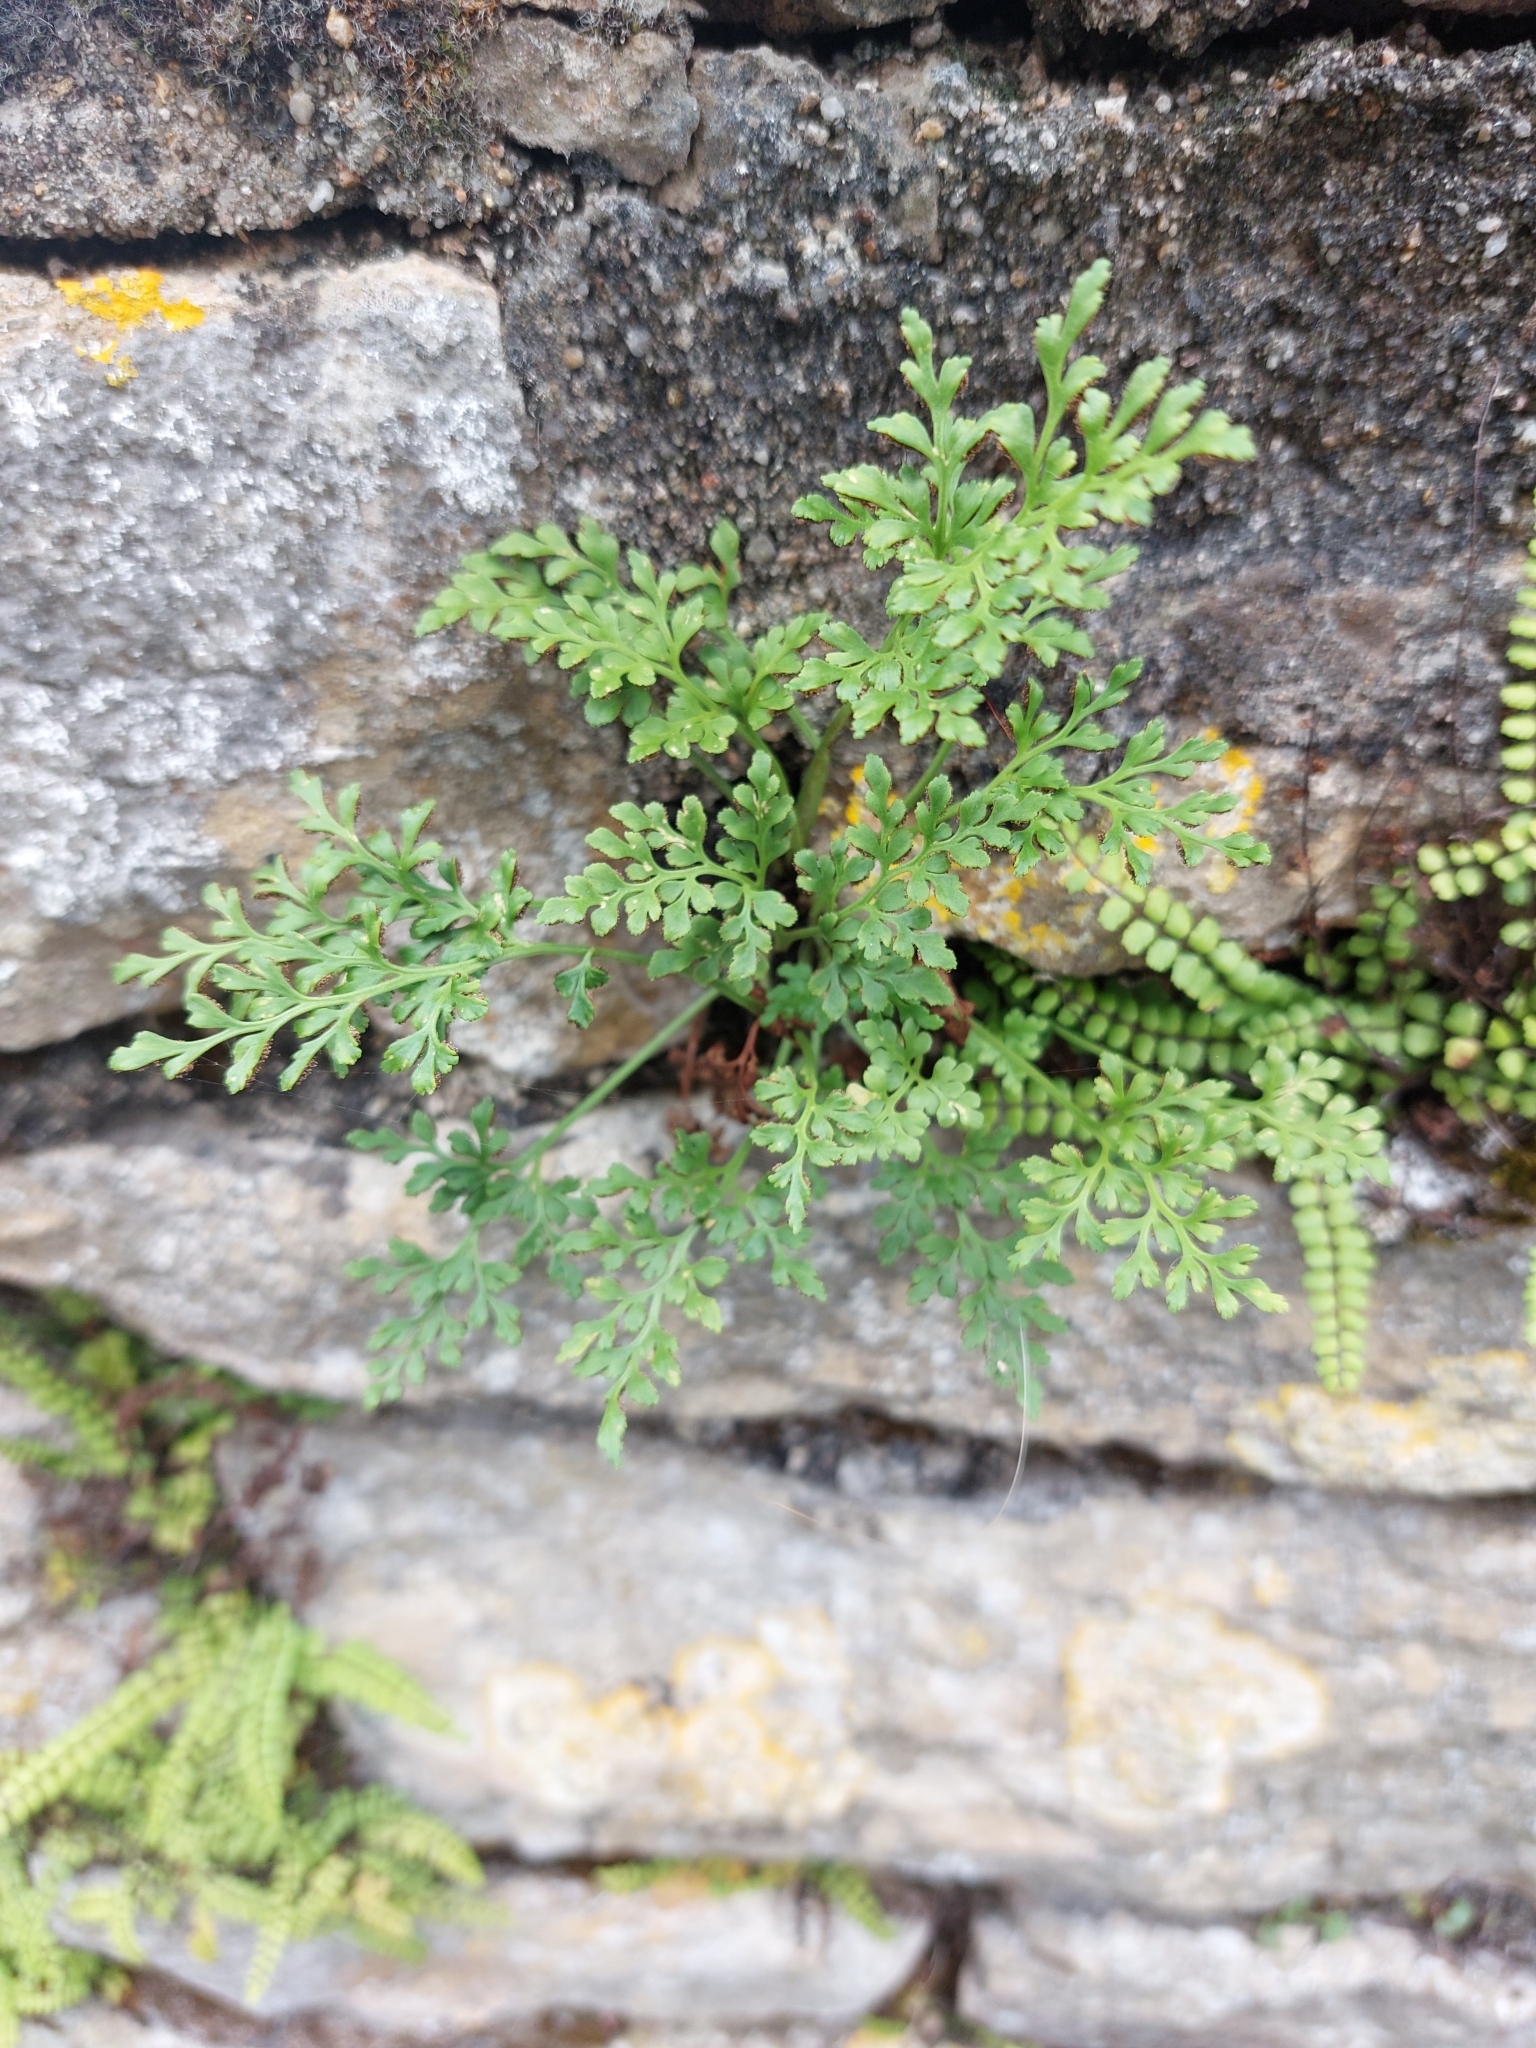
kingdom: Plantae
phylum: Tracheophyta
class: Polypodiopsida
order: Polypodiales
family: Aspleniaceae
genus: Asplenium
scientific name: Asplenium ruta-muraria
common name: Wall-rue
